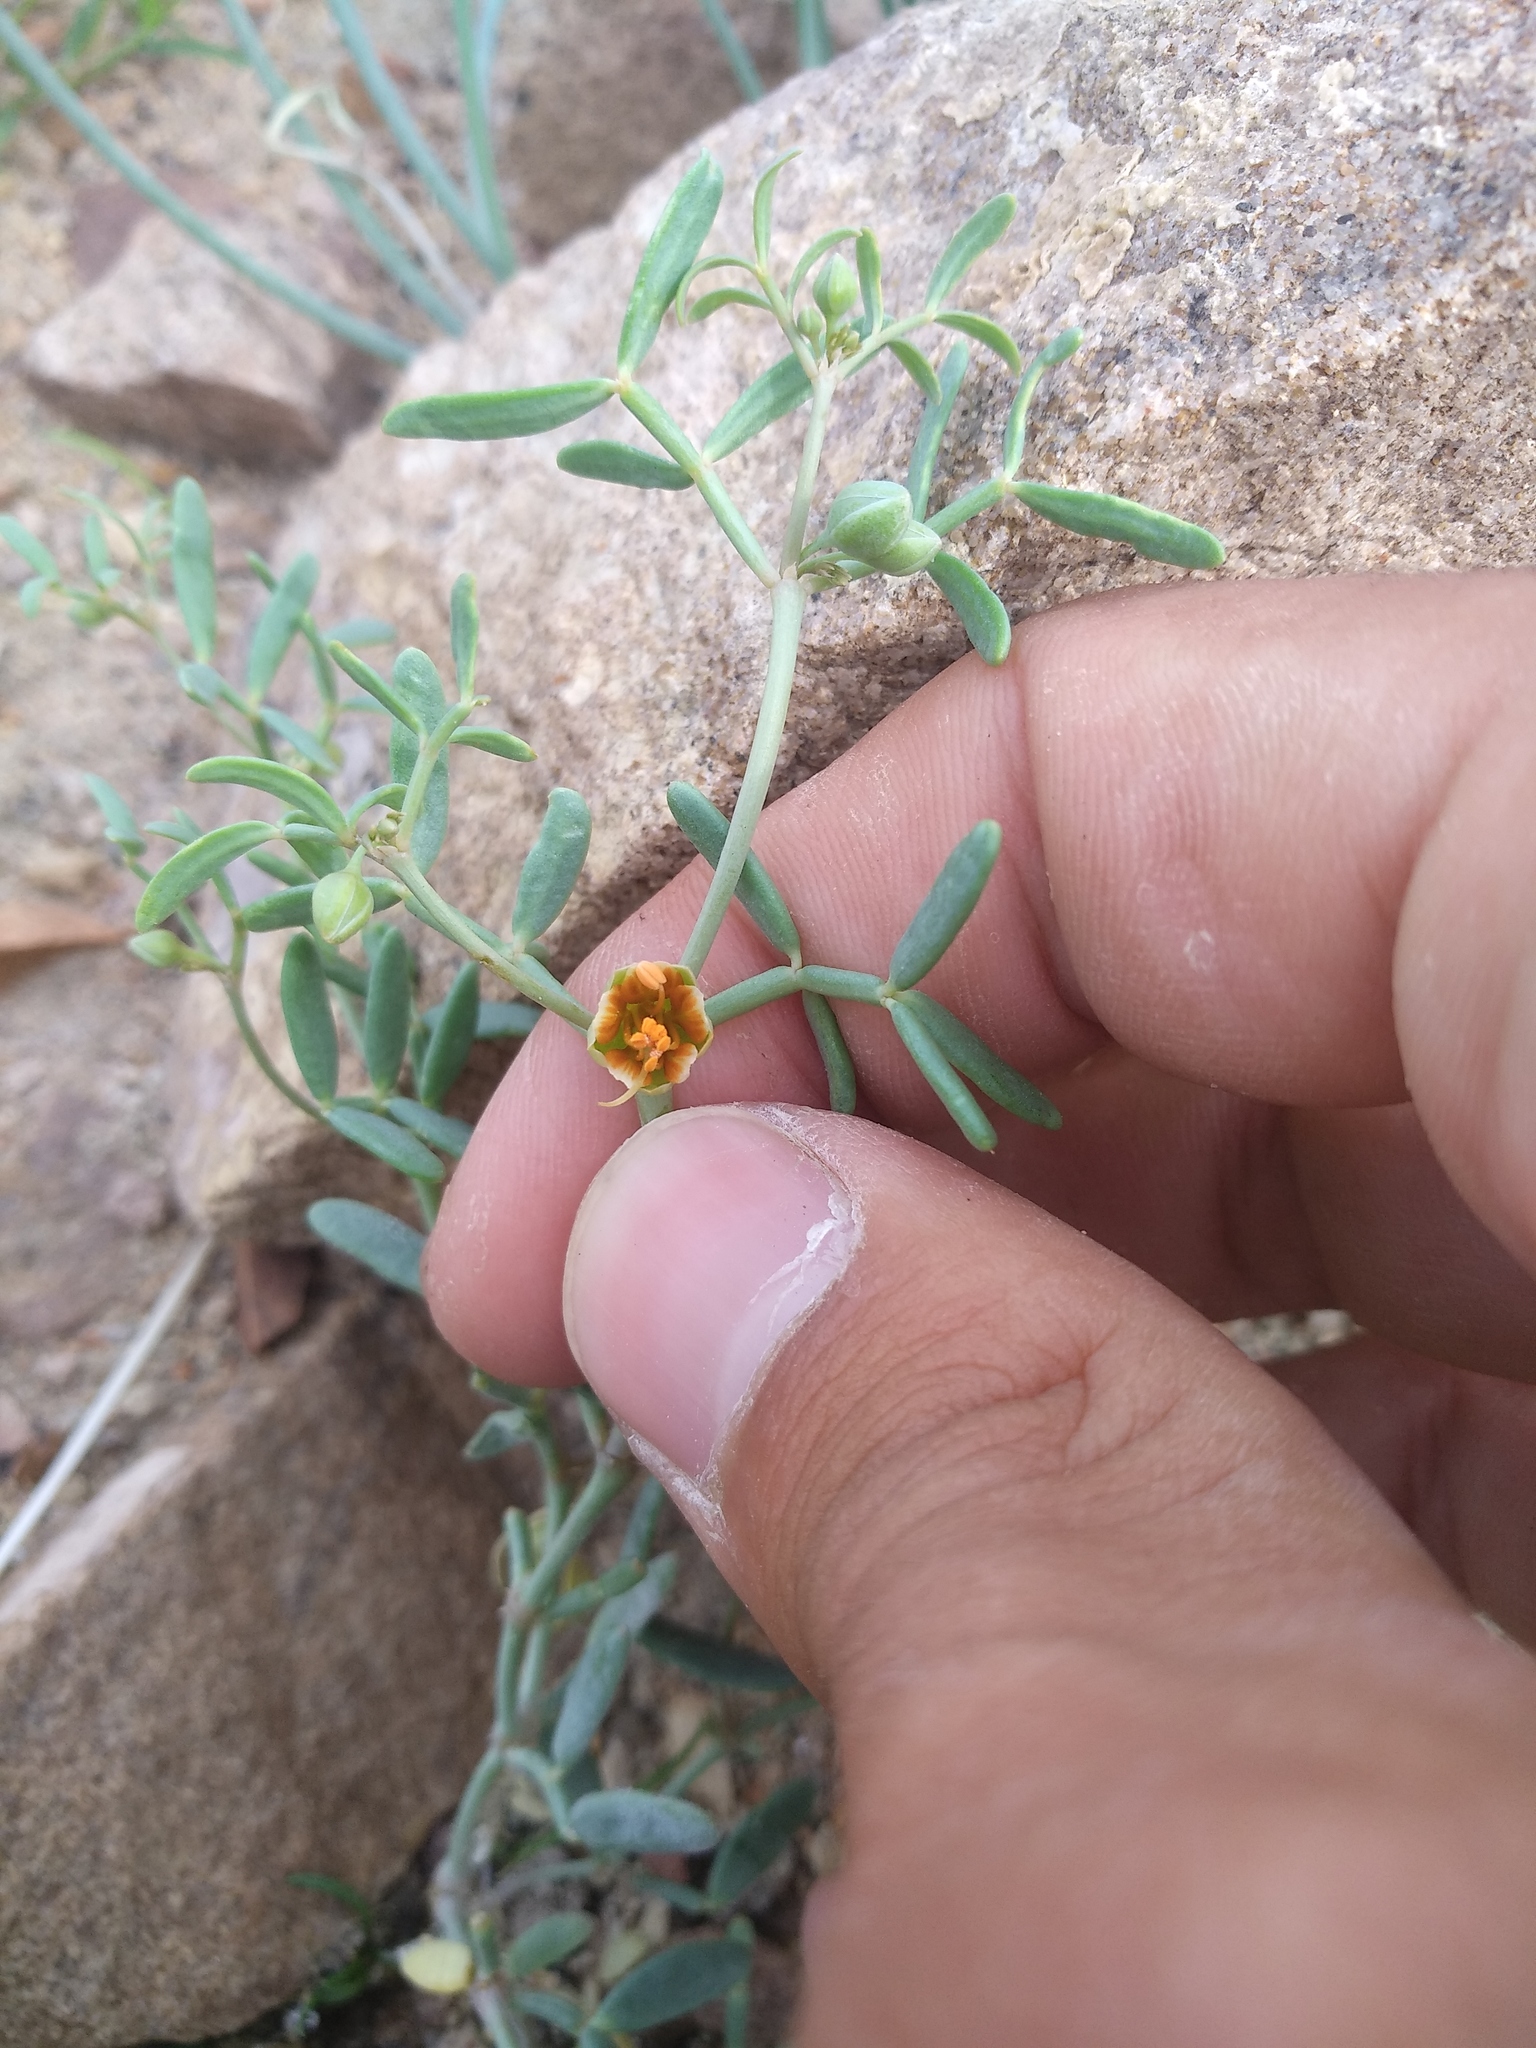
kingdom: Plantae
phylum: Tracheophyta
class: Magnoliopsida
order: Zygophyllales
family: Zygophyllaceae
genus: Zygophyllum
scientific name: Zygophyllum pterocarpum
